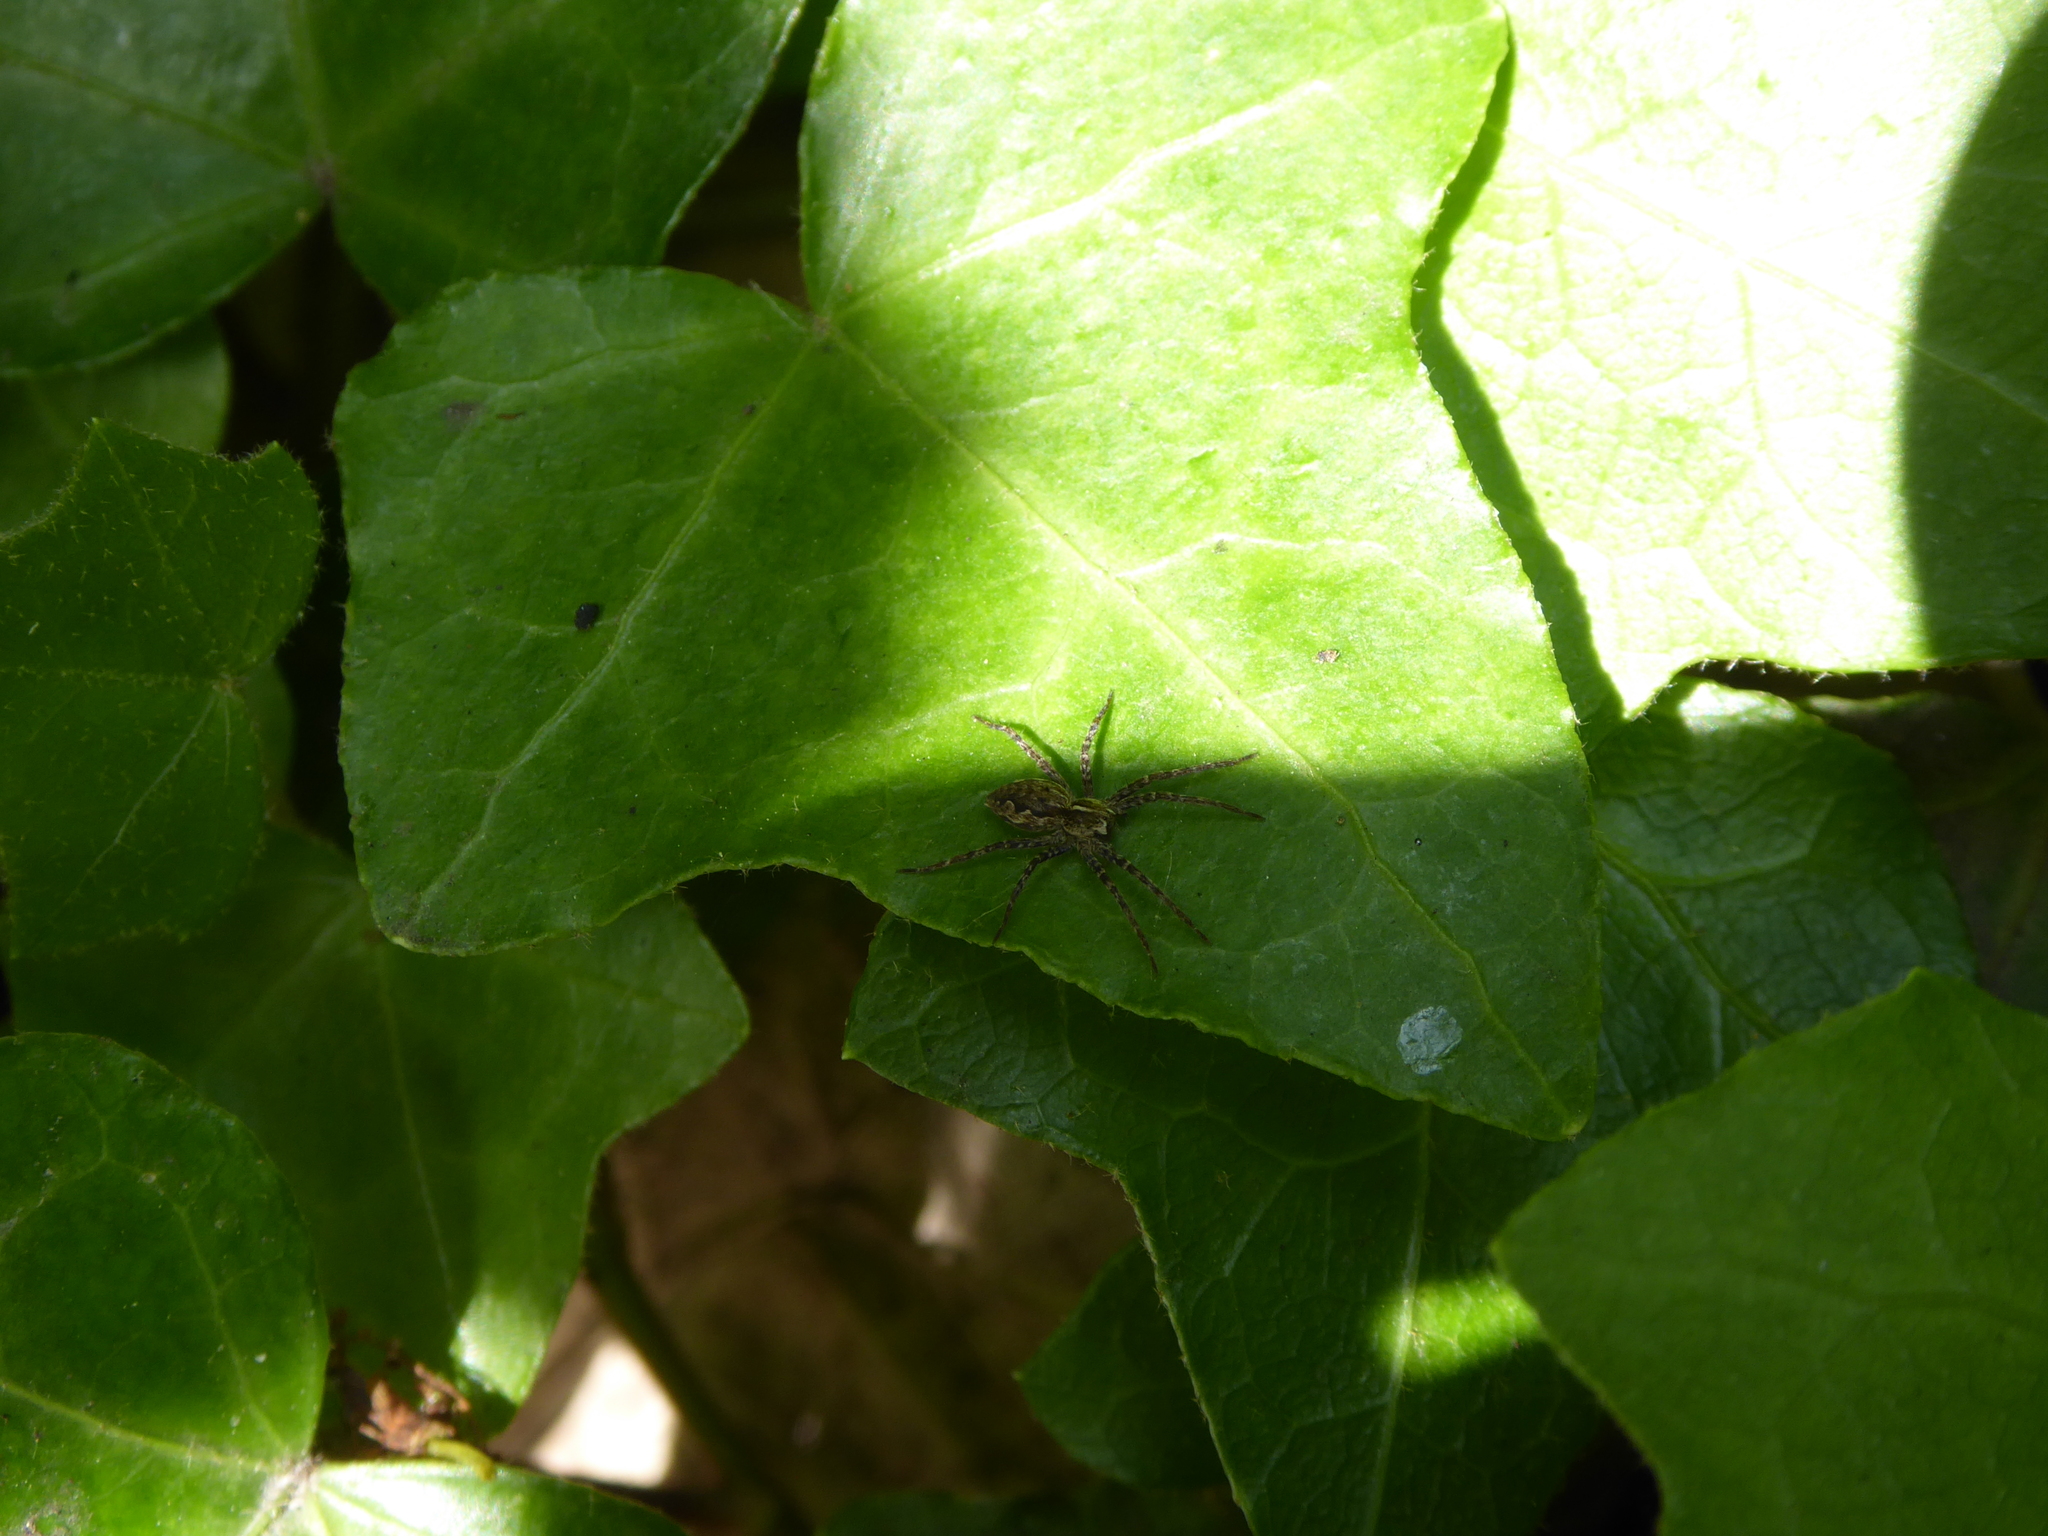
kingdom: Animalia
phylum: Arthropoda
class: Arachnida
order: Araneae
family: Pisauridae
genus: Pisaura
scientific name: Pisaura mirabilis
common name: Tent spider
